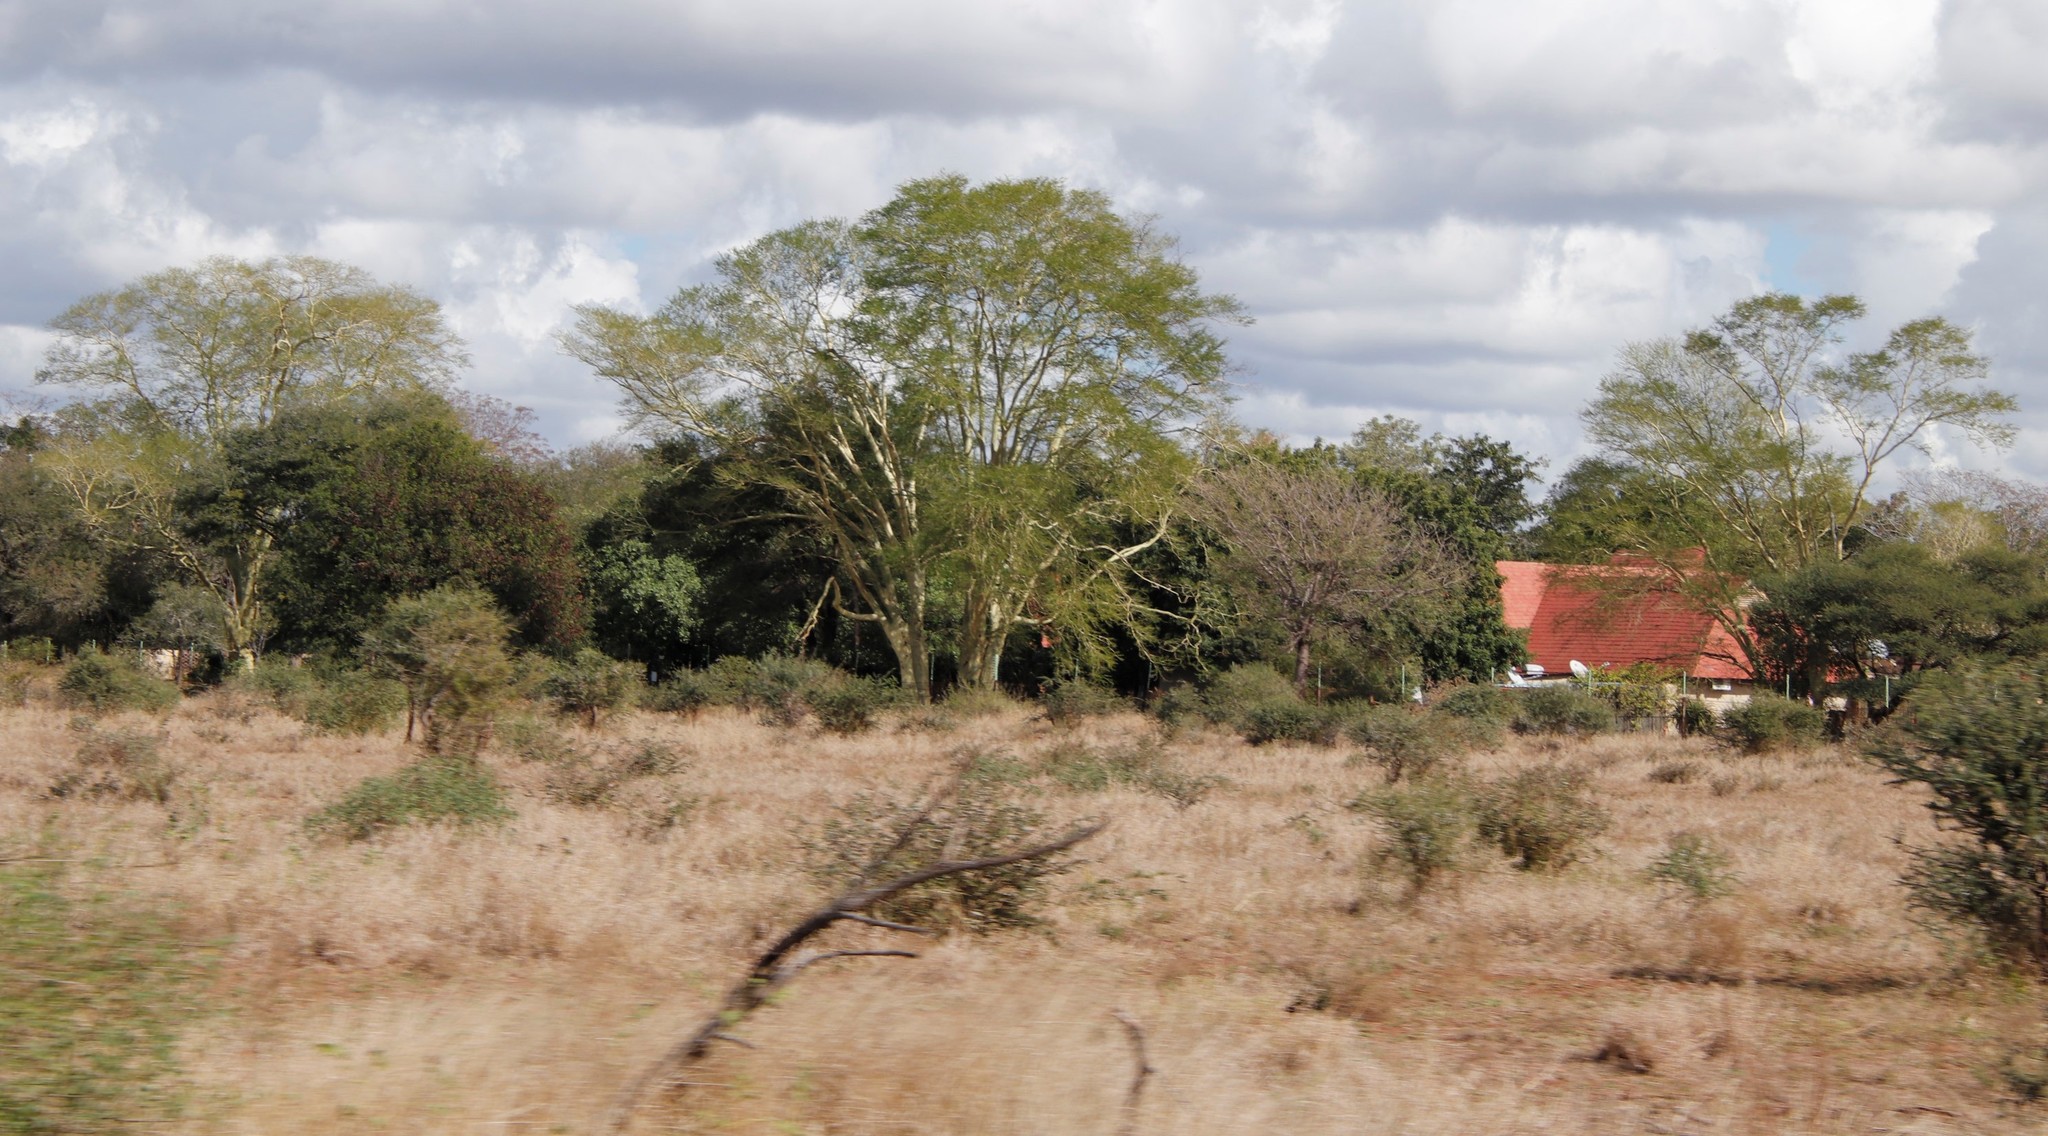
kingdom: Plantae
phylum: Tracheophyta
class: Magnoliopsida
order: Fabales
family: Fabaceae
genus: Vachellia
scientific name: Vachellia xanthophloea
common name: Fever tree
